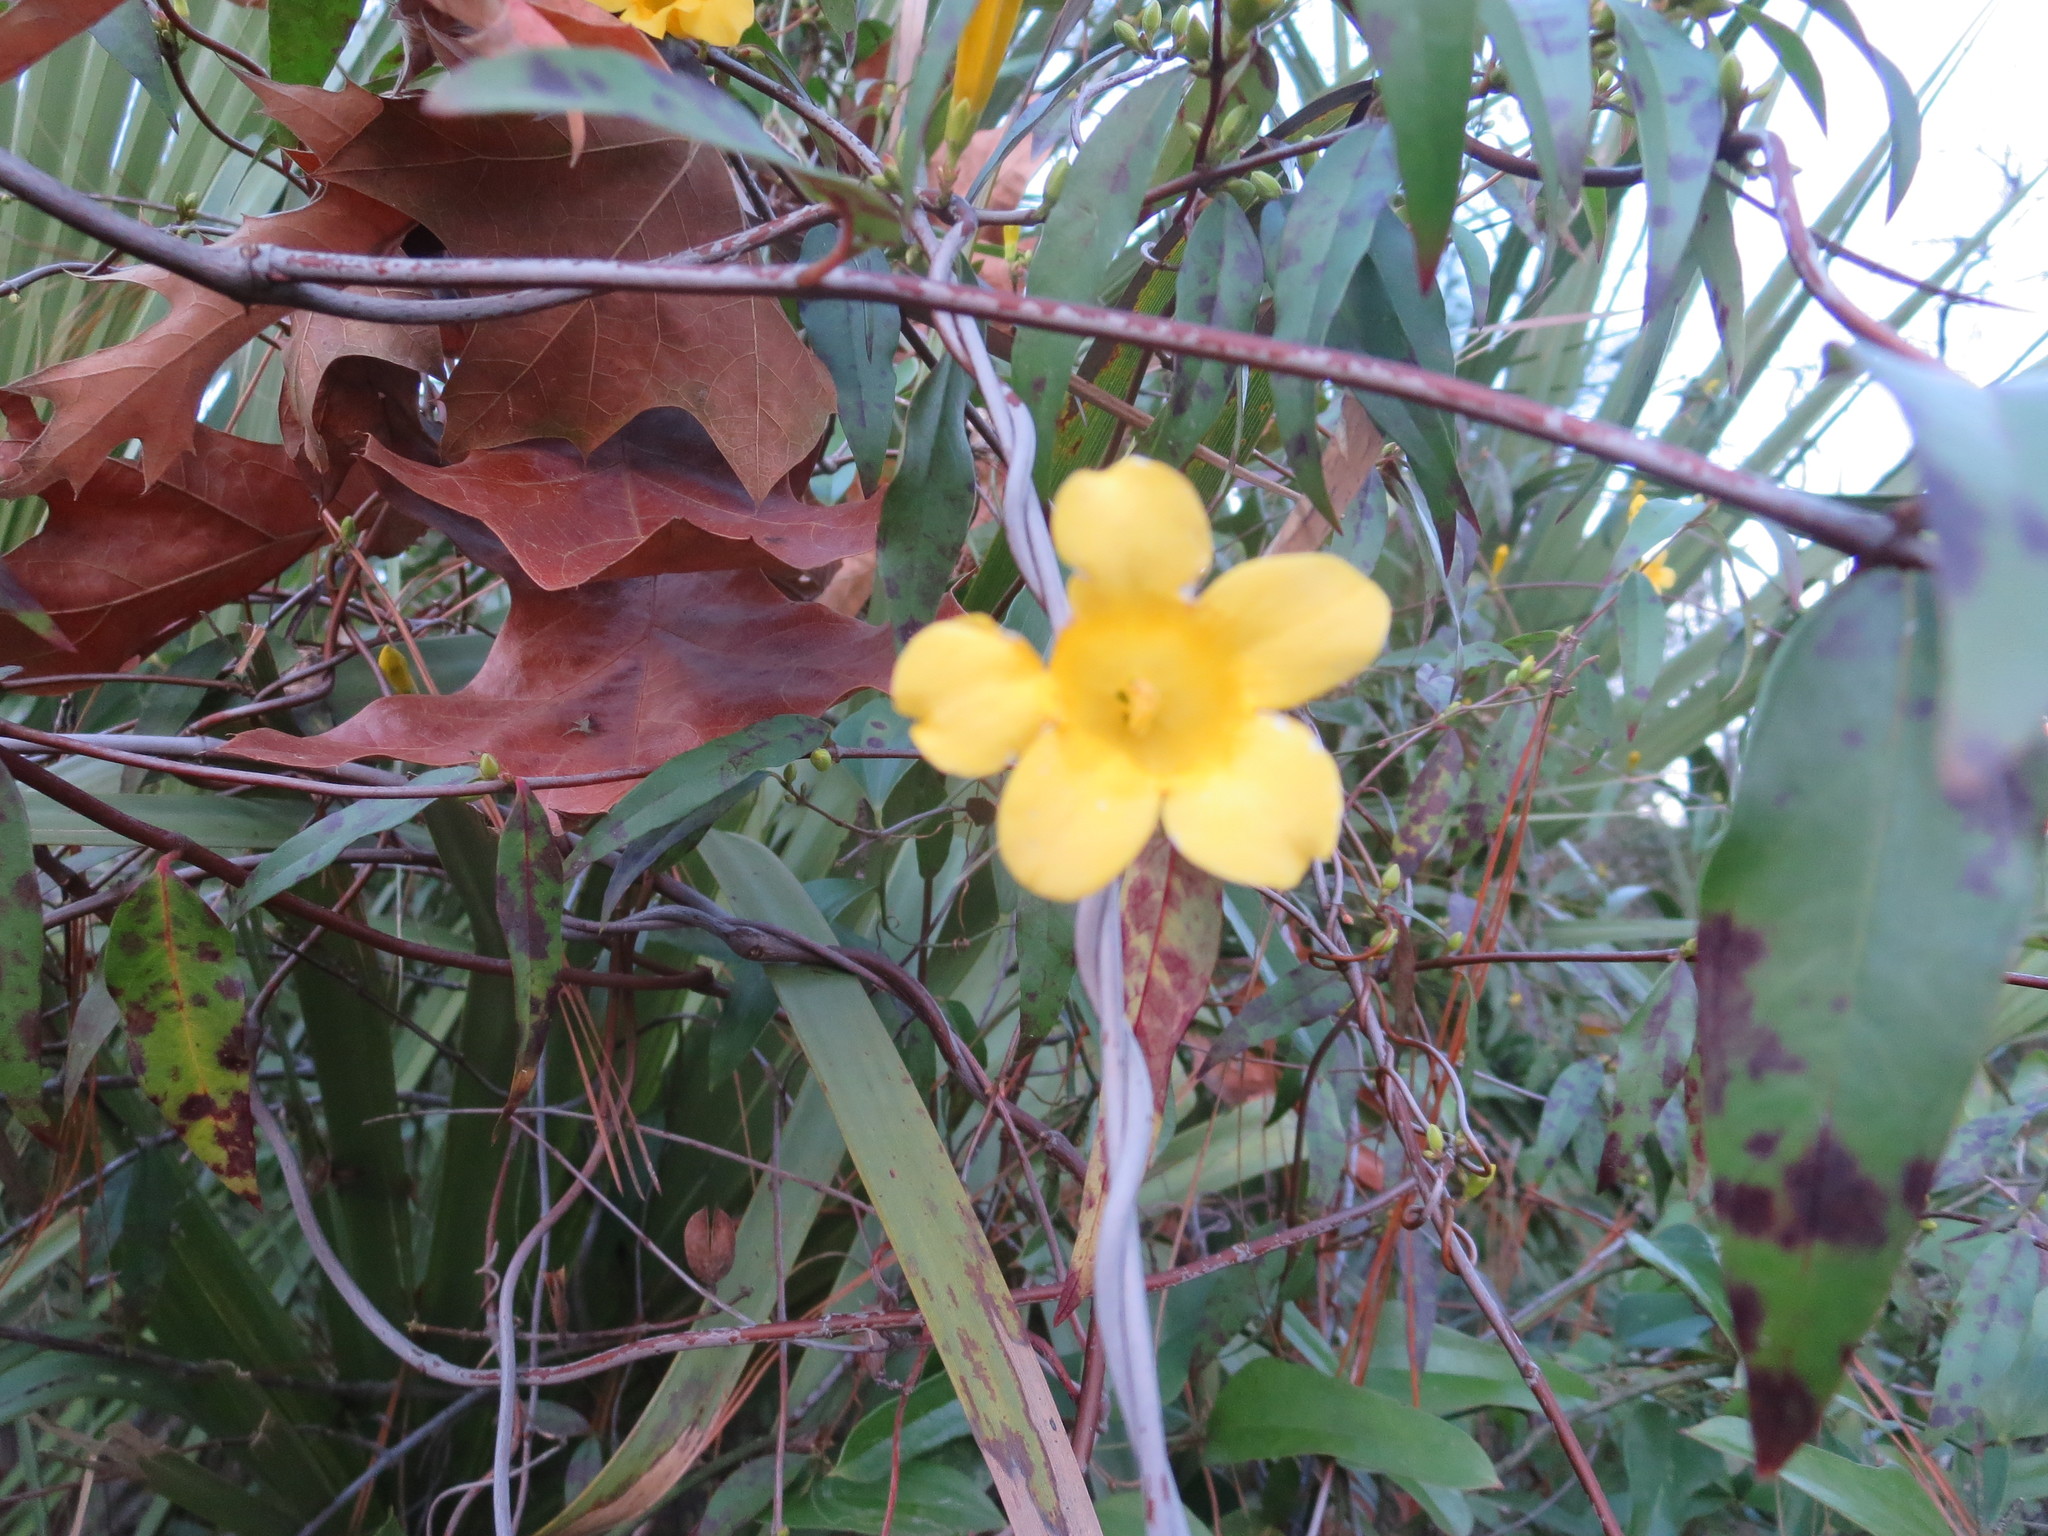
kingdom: Plantae
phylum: Tracheophyta
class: Magnoliopsida
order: Gentianales
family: Gelsemiaceae
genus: Gelsemium
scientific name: Gelsemium sempervirens
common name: Carolina-jasmine
